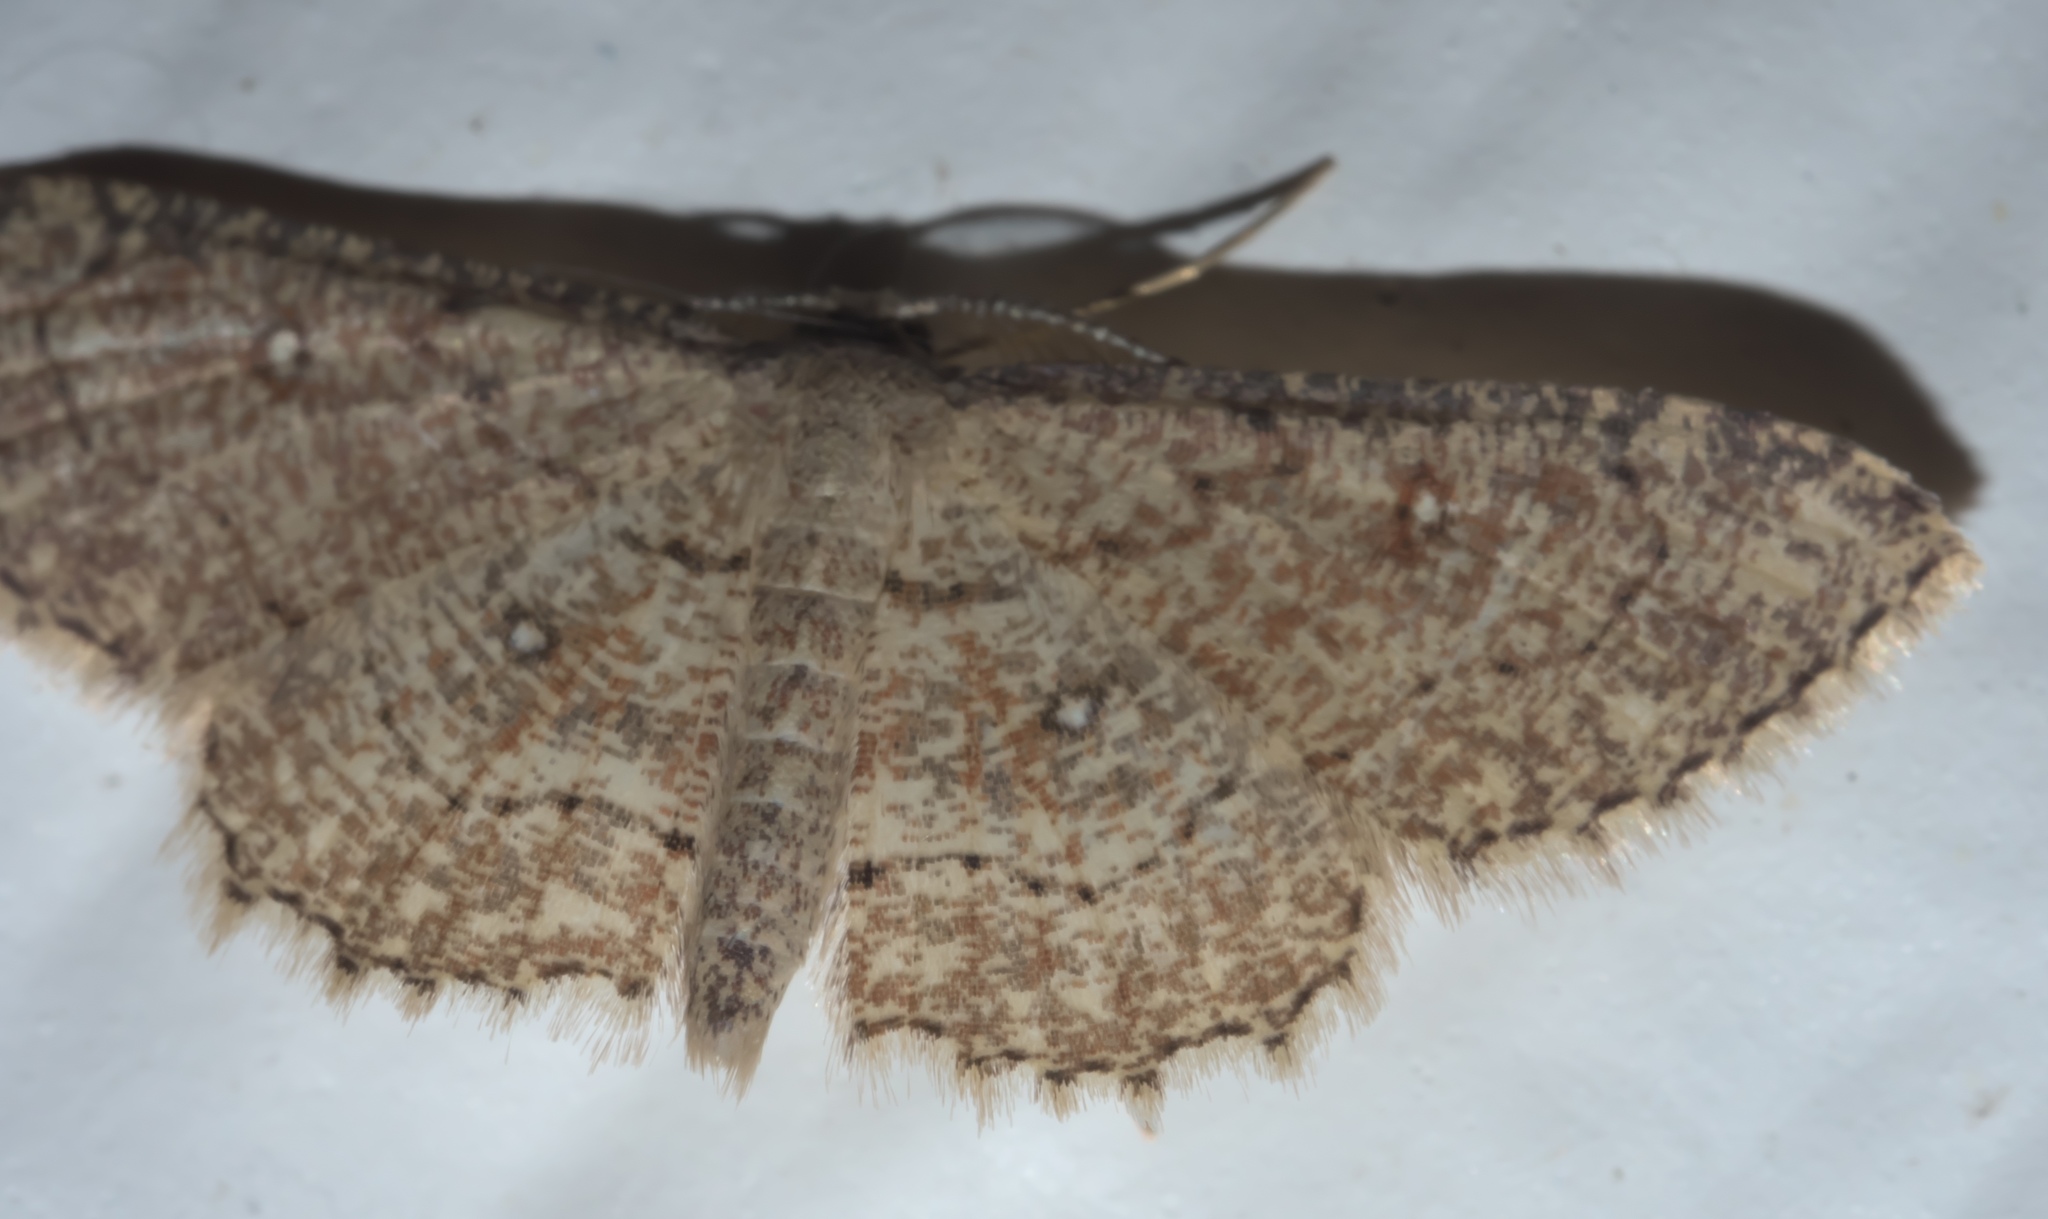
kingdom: Animalia
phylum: Arthropoda
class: Insecta
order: Lepidoptera
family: Geometridae
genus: Cyclophora
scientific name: Cyclophora nanaria
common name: Cankerworm
